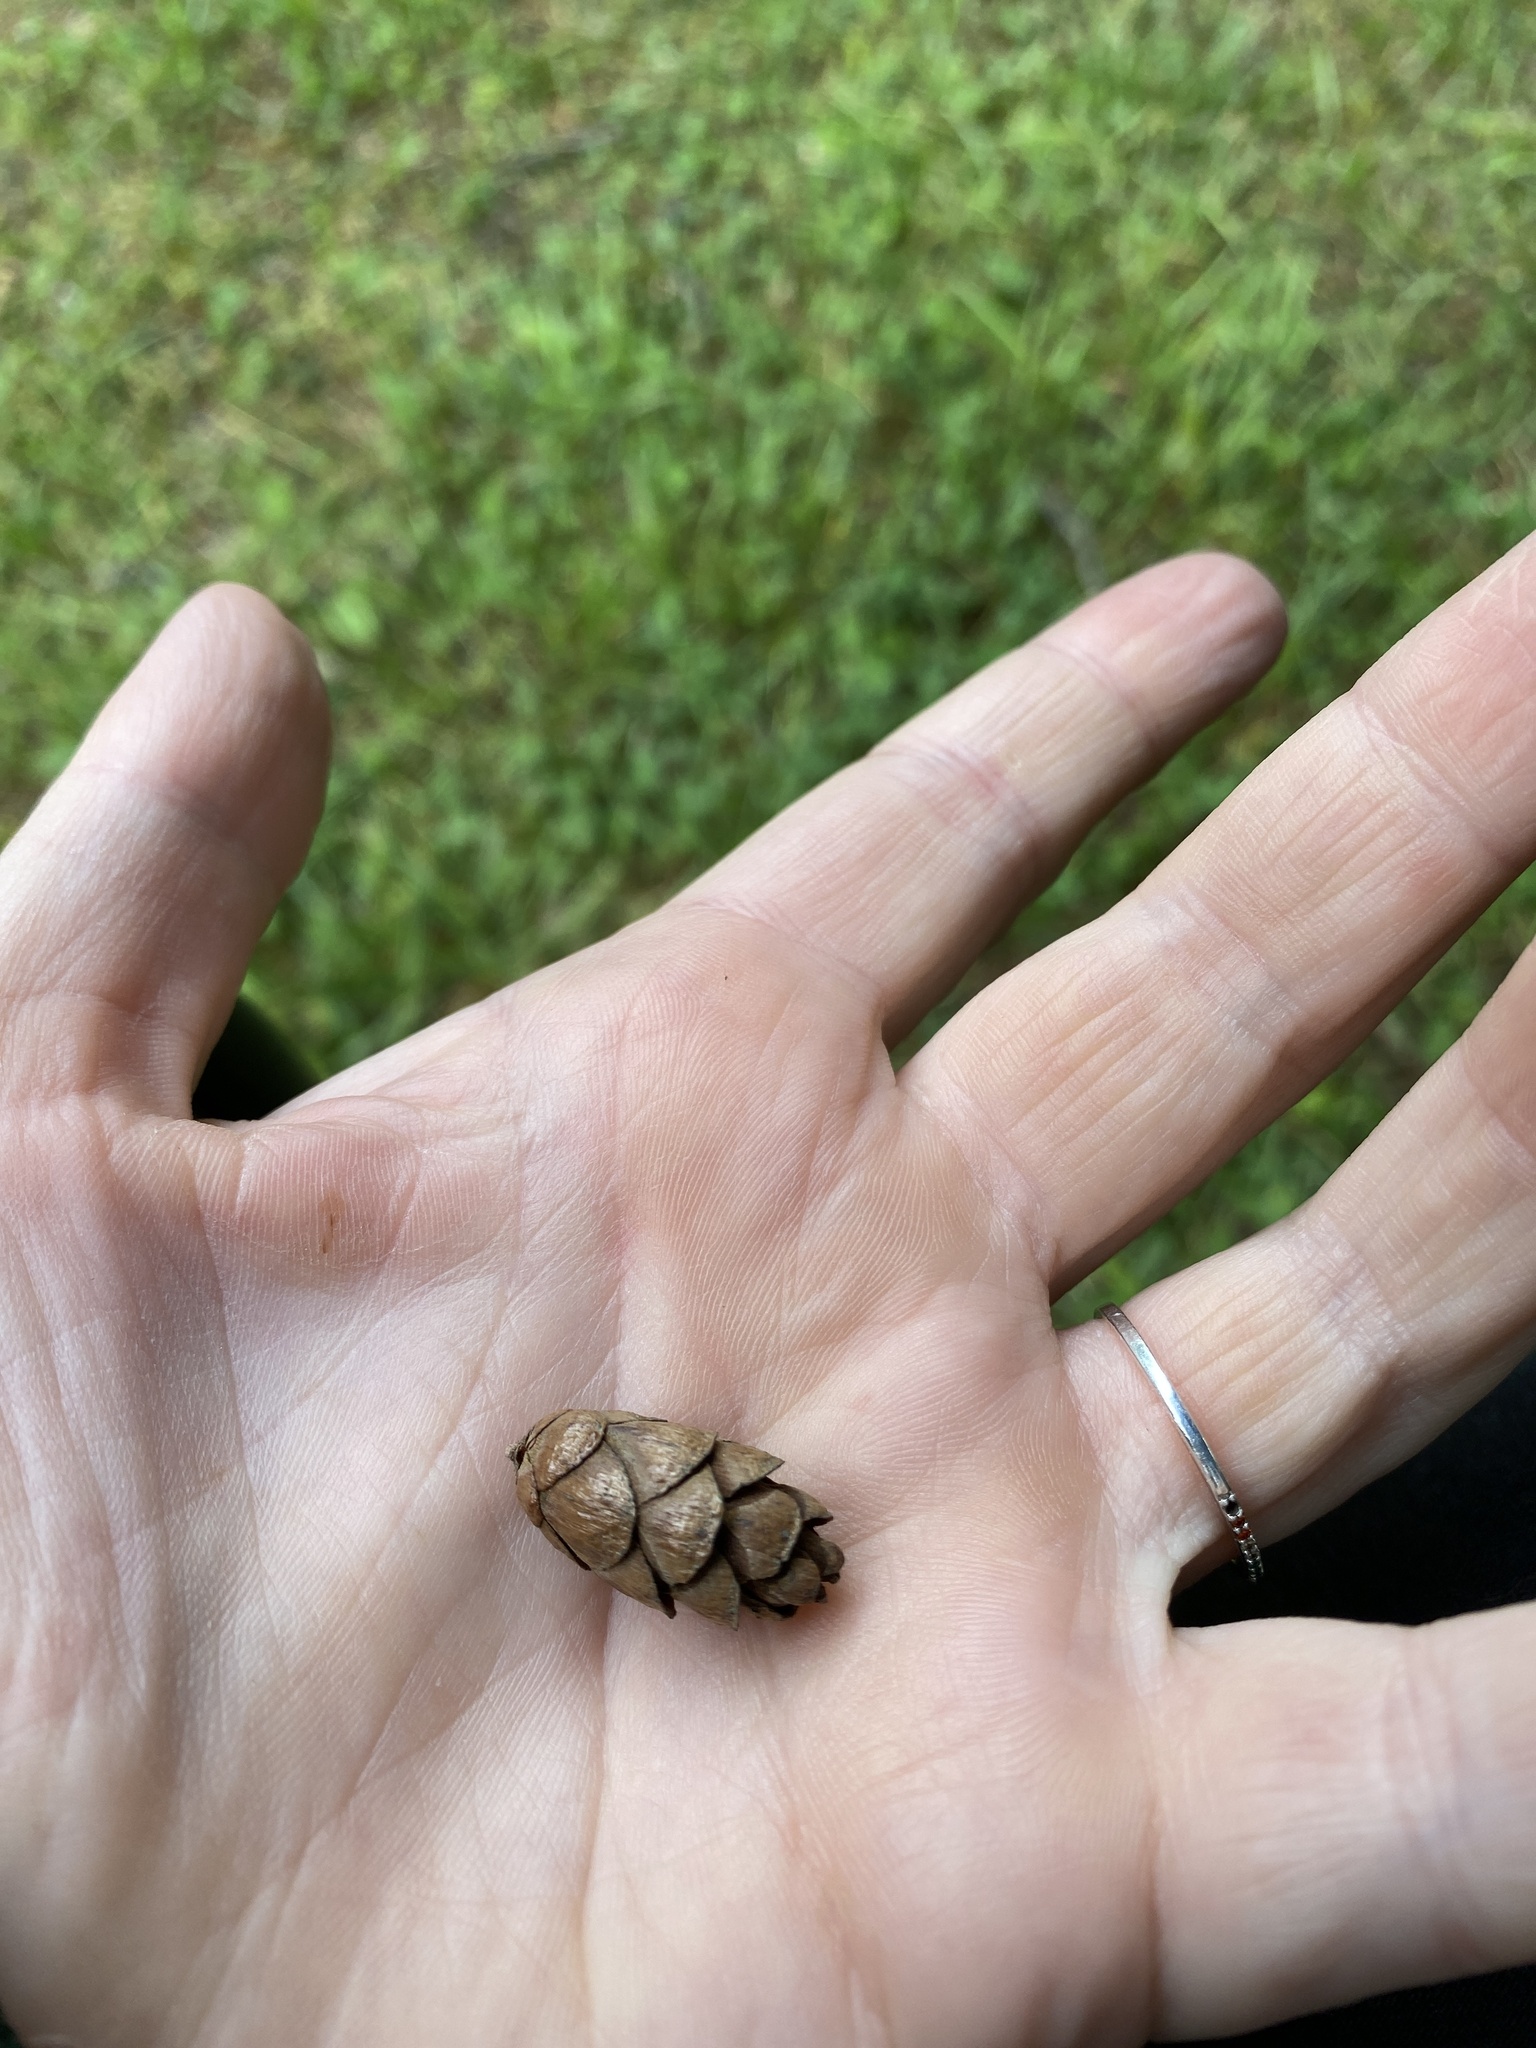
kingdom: Plantae
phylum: Tracheophyta
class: Pinopsida
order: Pinales
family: Pinaceae
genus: Tsuga
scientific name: Tsuga canadensis
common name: Eastern hemlock
